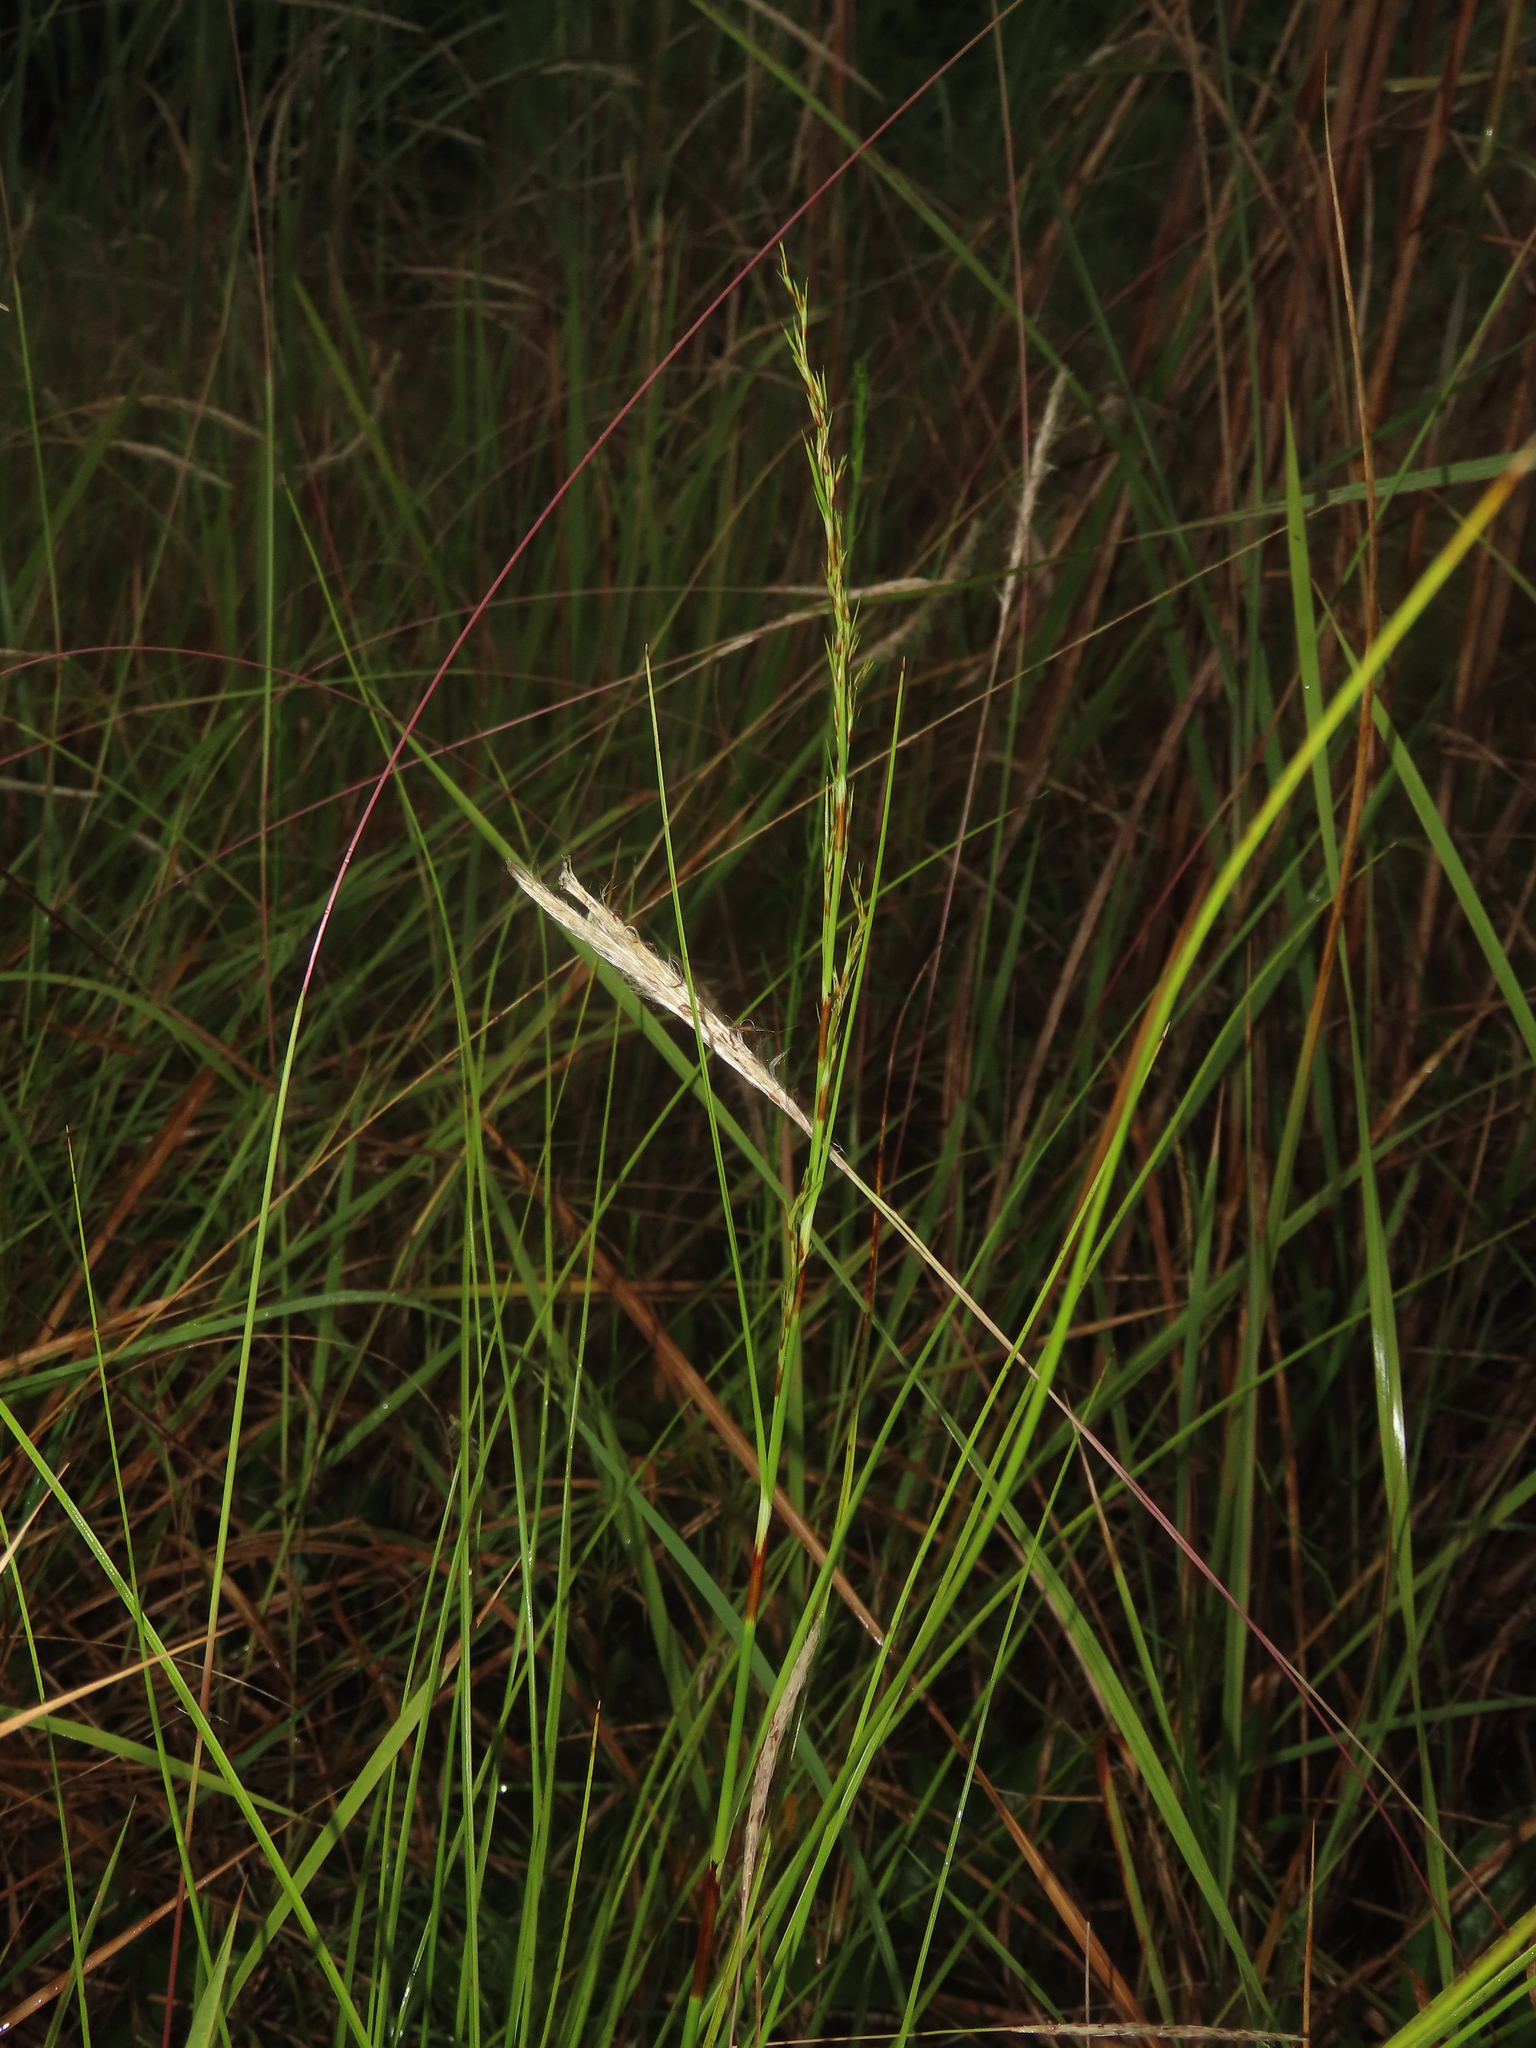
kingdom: Plantae
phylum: Tracheophyta
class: Liliopsida
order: Poales
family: Cyperaceae
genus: Schoenus
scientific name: Schoenus falcatus
